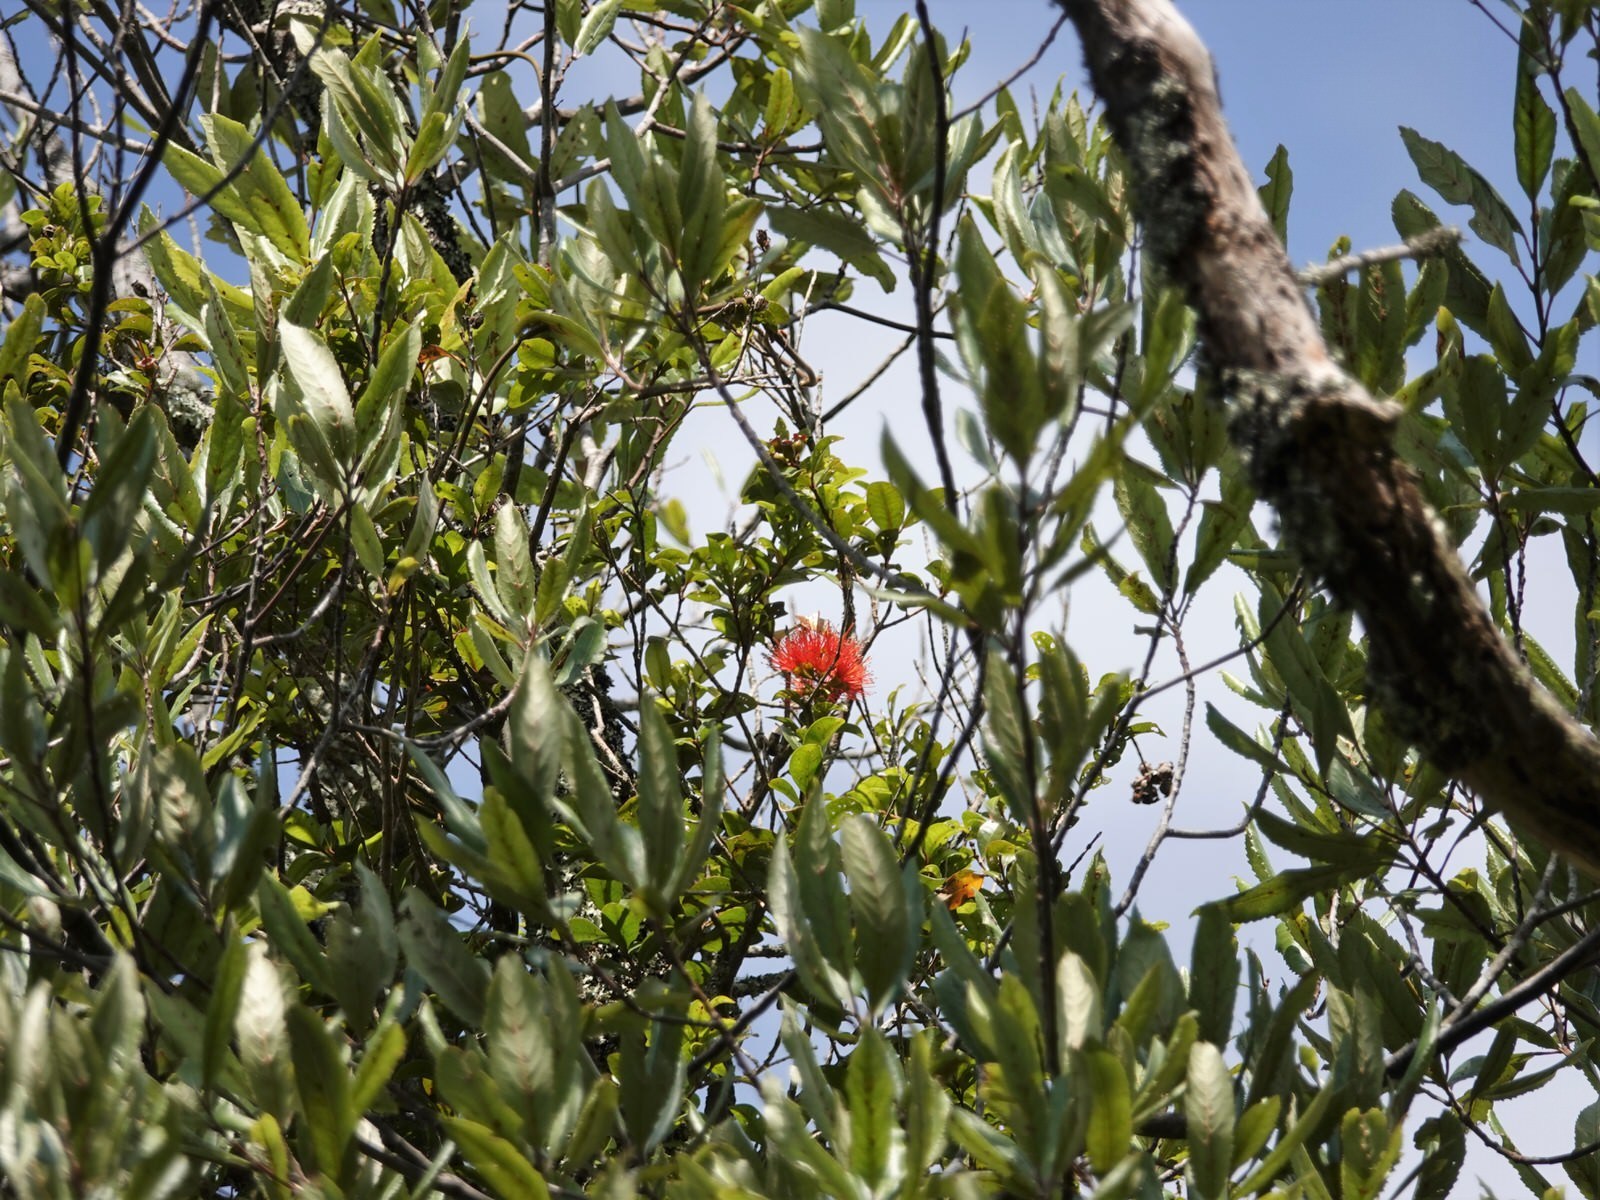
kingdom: Plantae
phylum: Tracheophyta
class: Magnoliopsida
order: Myrtales
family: Myrtaceae
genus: Metrosideros
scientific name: Metrosideros fulgens
